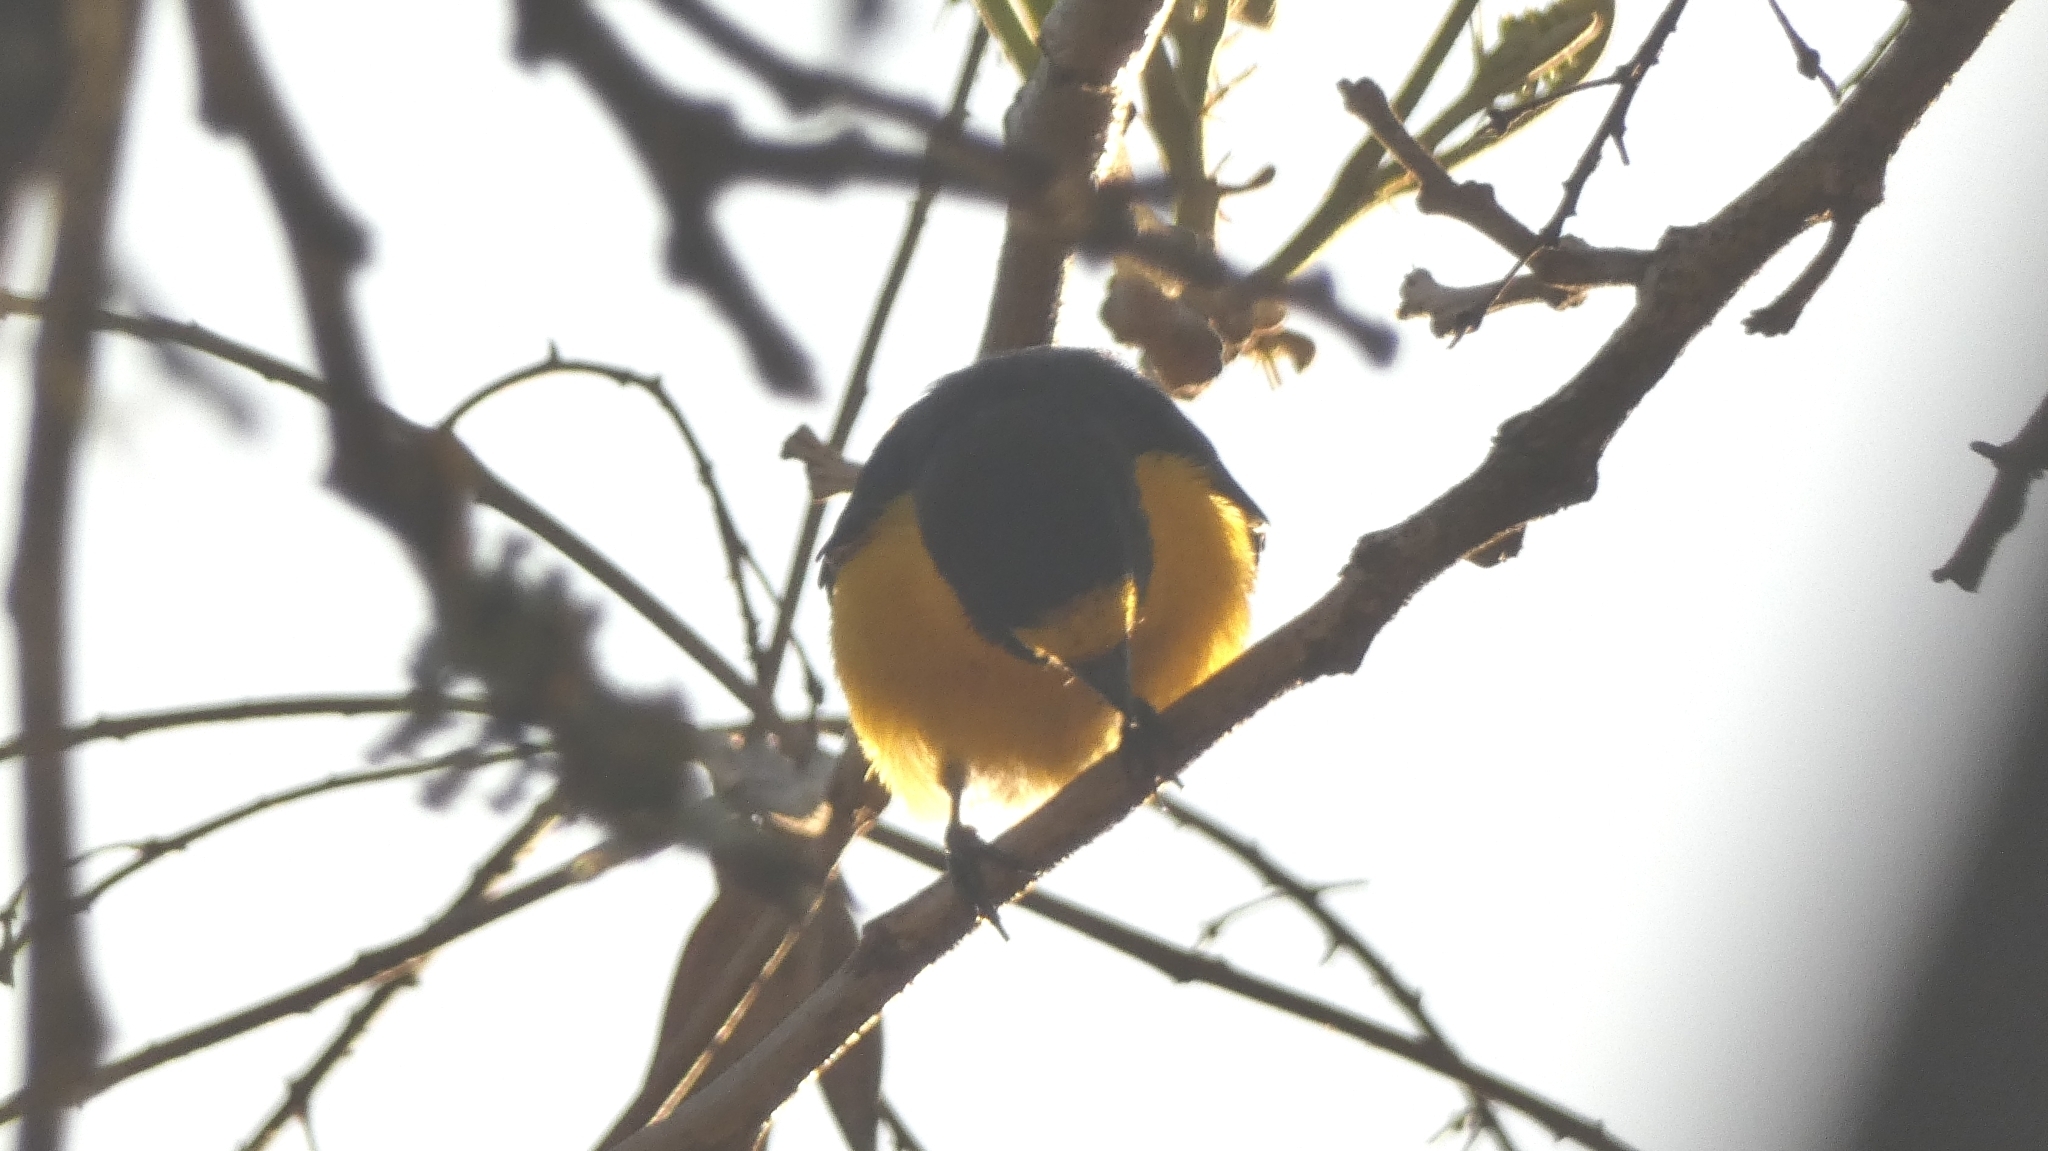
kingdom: Animalia
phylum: Chordata
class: Aves
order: Passeriformes
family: Fringillidae
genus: Euphonia
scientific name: Euphonia chlorotica
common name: Purple-throated euphonia
